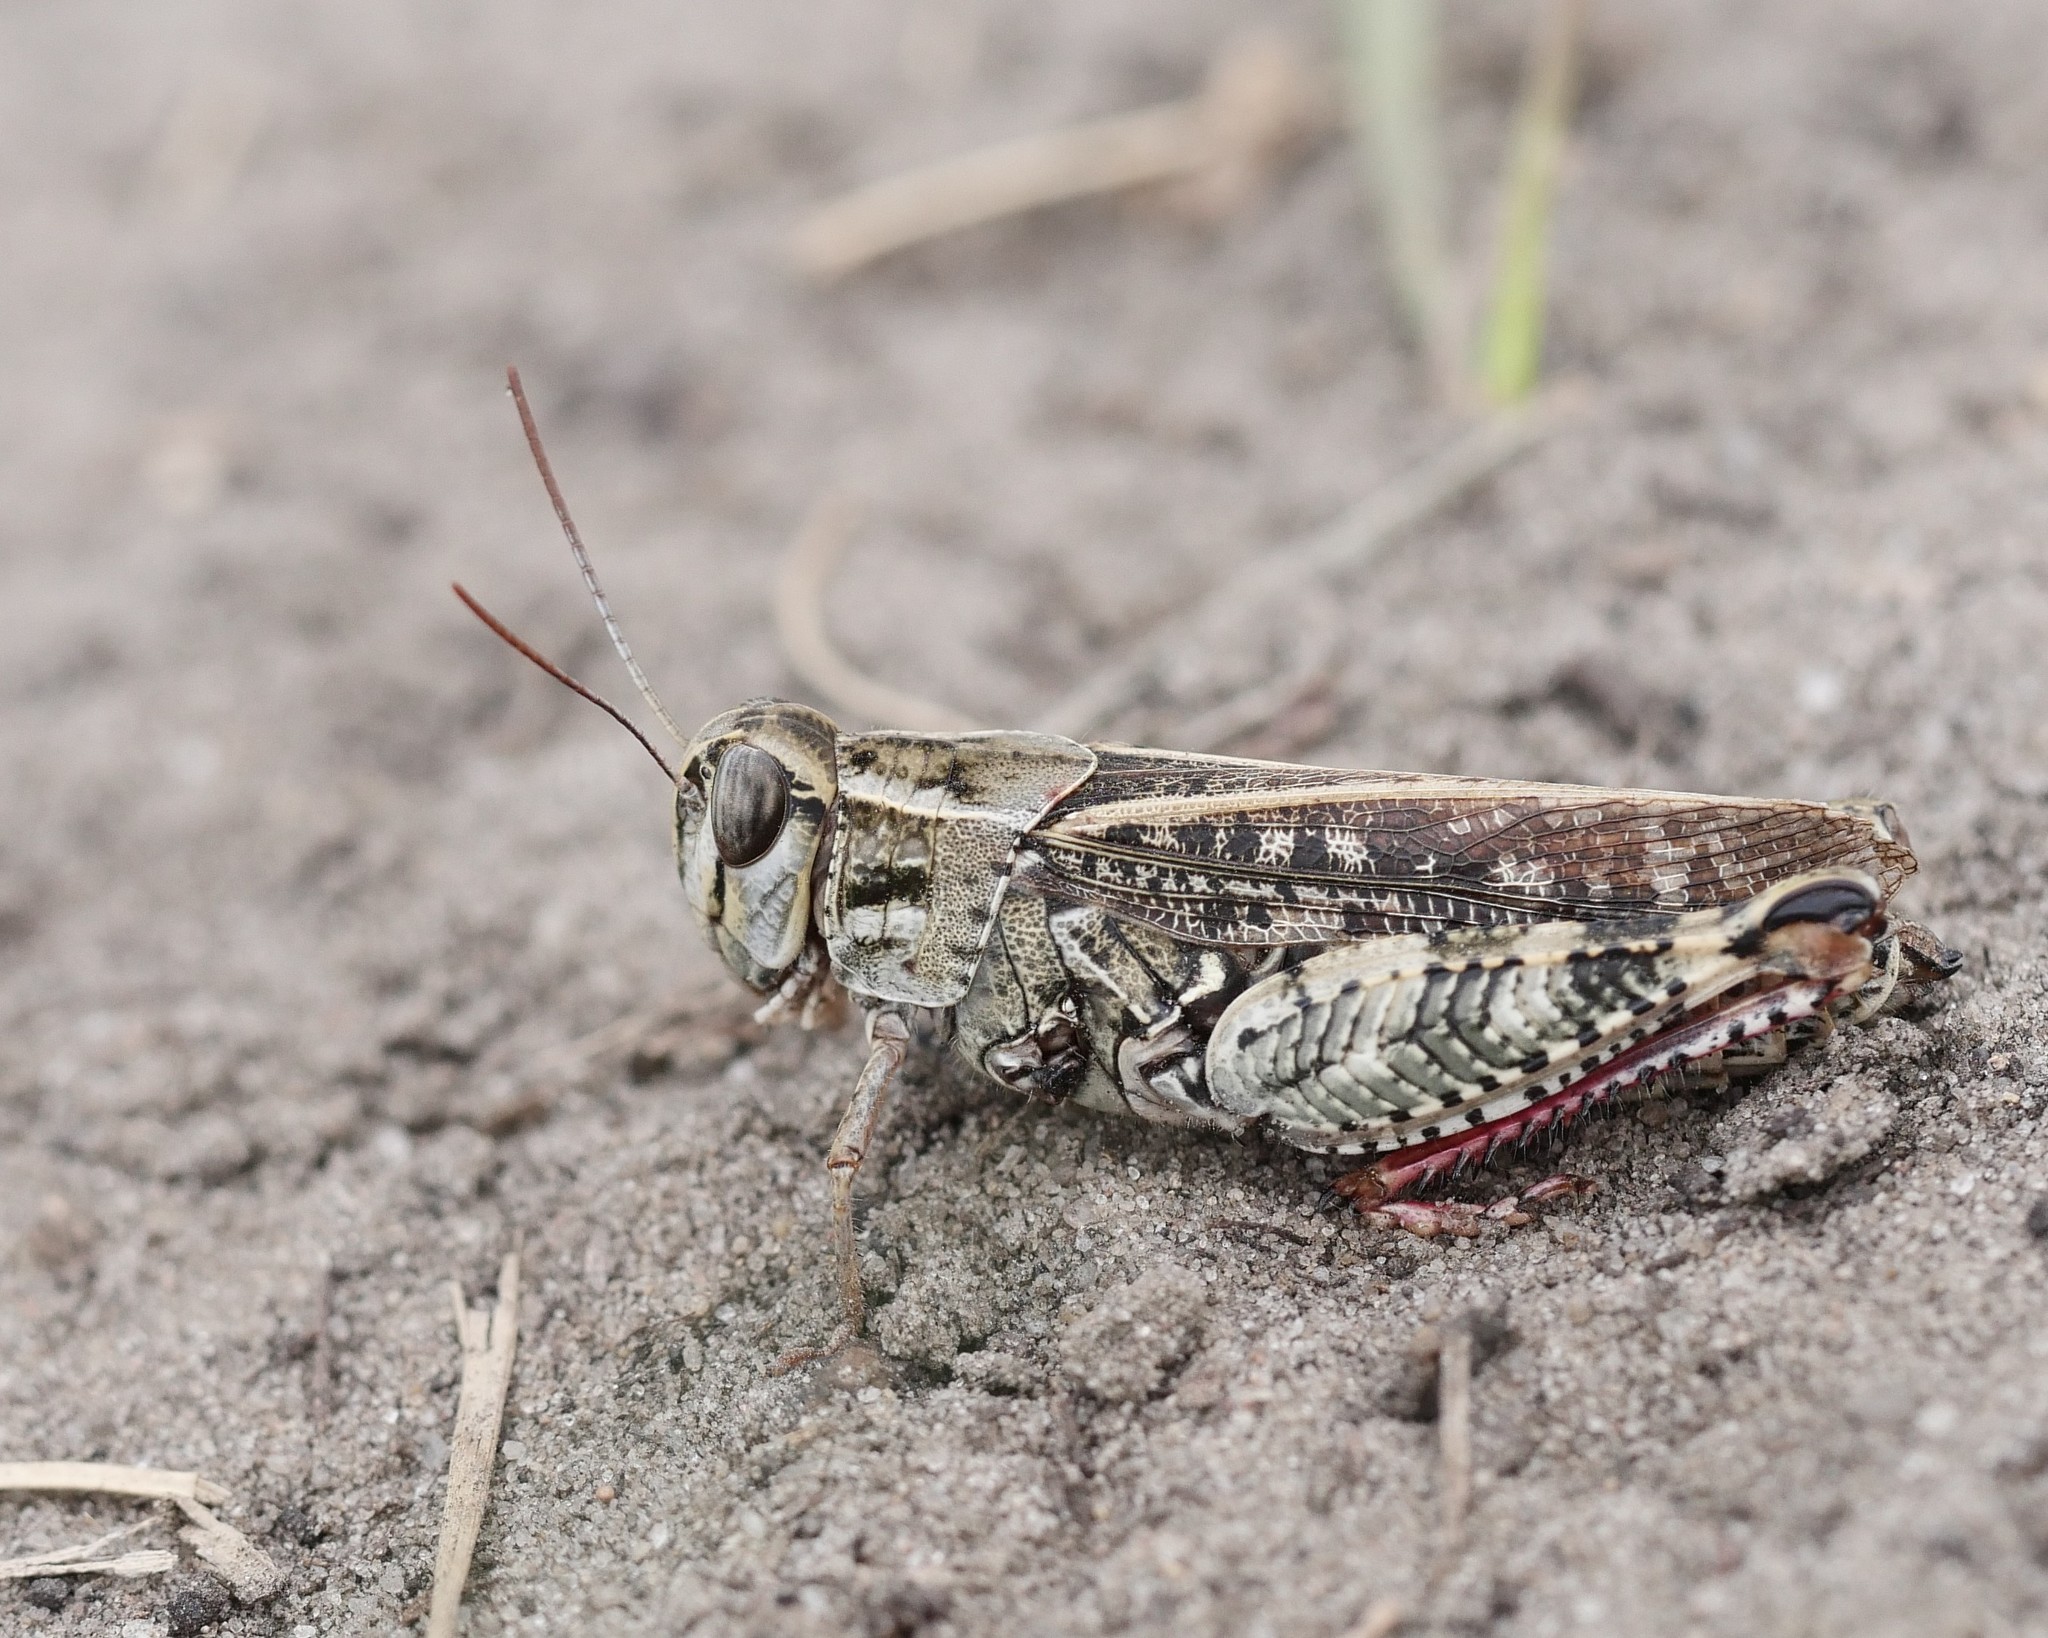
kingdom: Animalia
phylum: Arthropoda
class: Insecta
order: Orthoptera
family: Acrididae
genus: Calliptamus
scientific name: Calliptamus italicus
